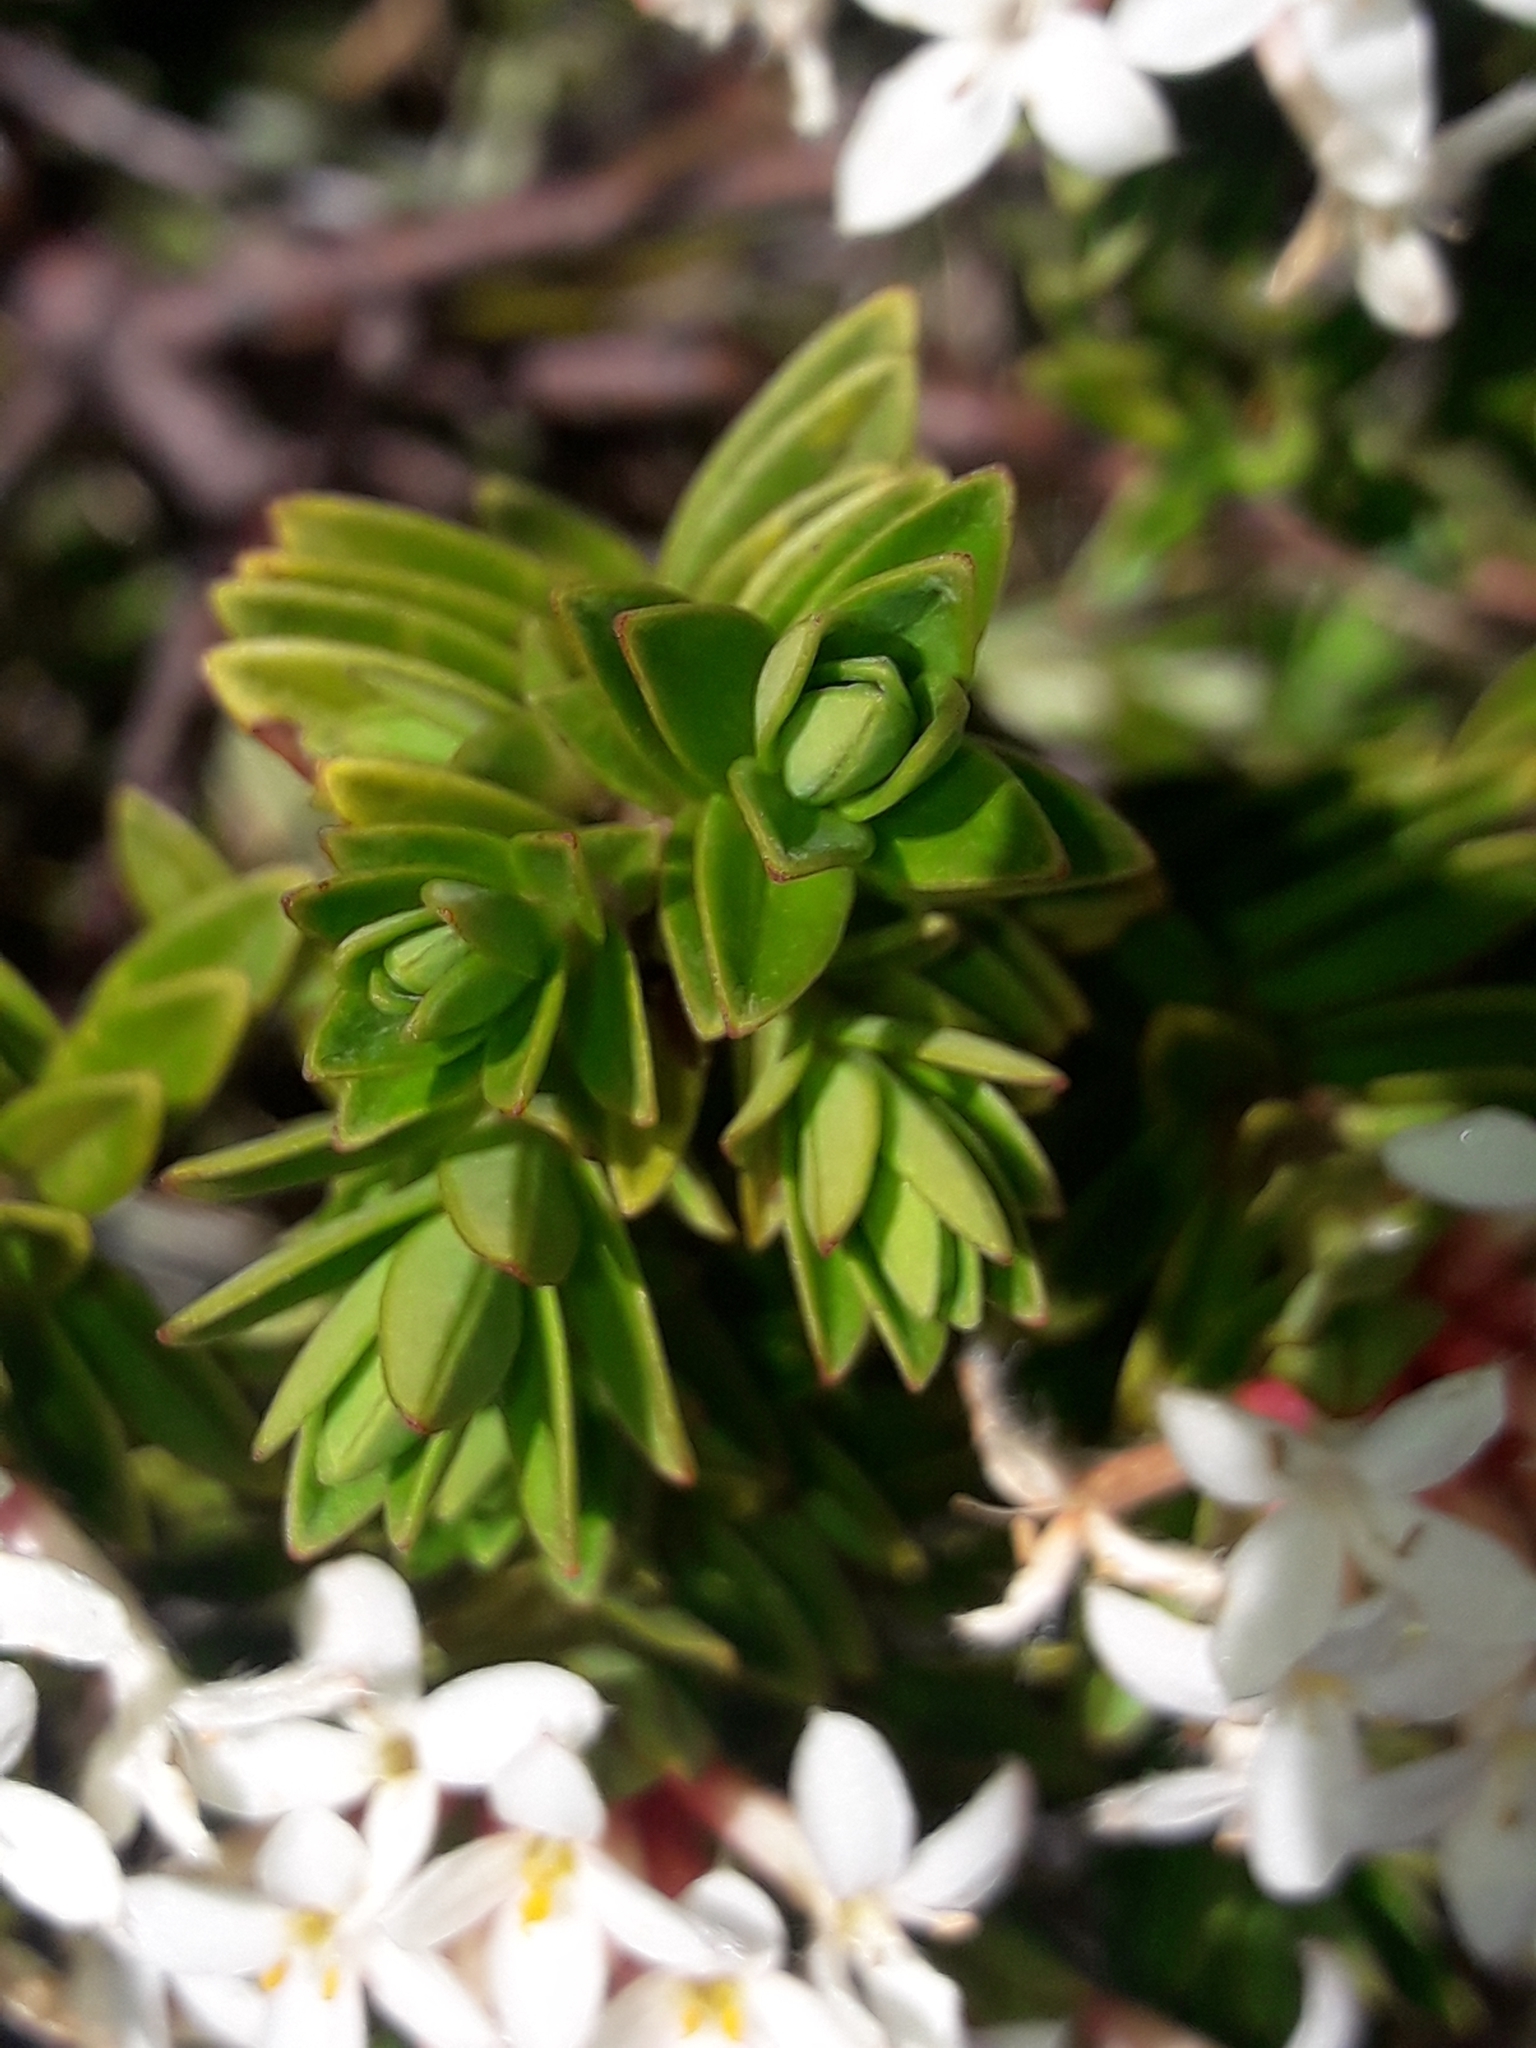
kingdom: Plantae
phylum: Tracheophyta
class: Magnoliopsida
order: Malvales
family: Thymelaeaceae
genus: Pimelea
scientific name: Pimelea buxifolia
